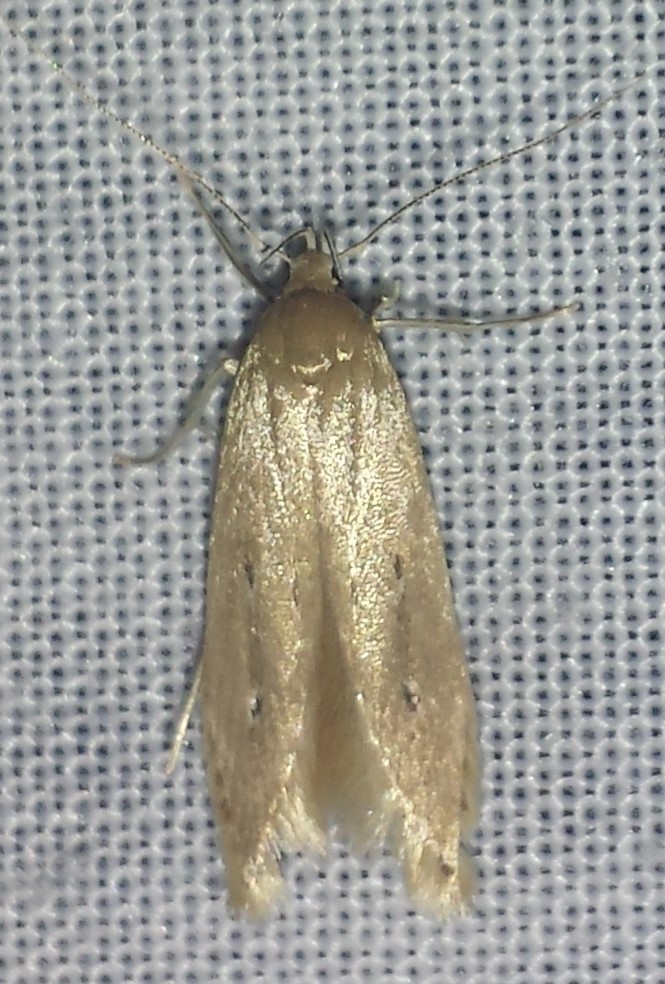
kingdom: Animalia
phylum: Arthropoda
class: Insecta
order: Lepidoptera
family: Cosmopterigidae
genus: Limnaecia
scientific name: Limnaecia phragmitella
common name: Bulrush cosmet
